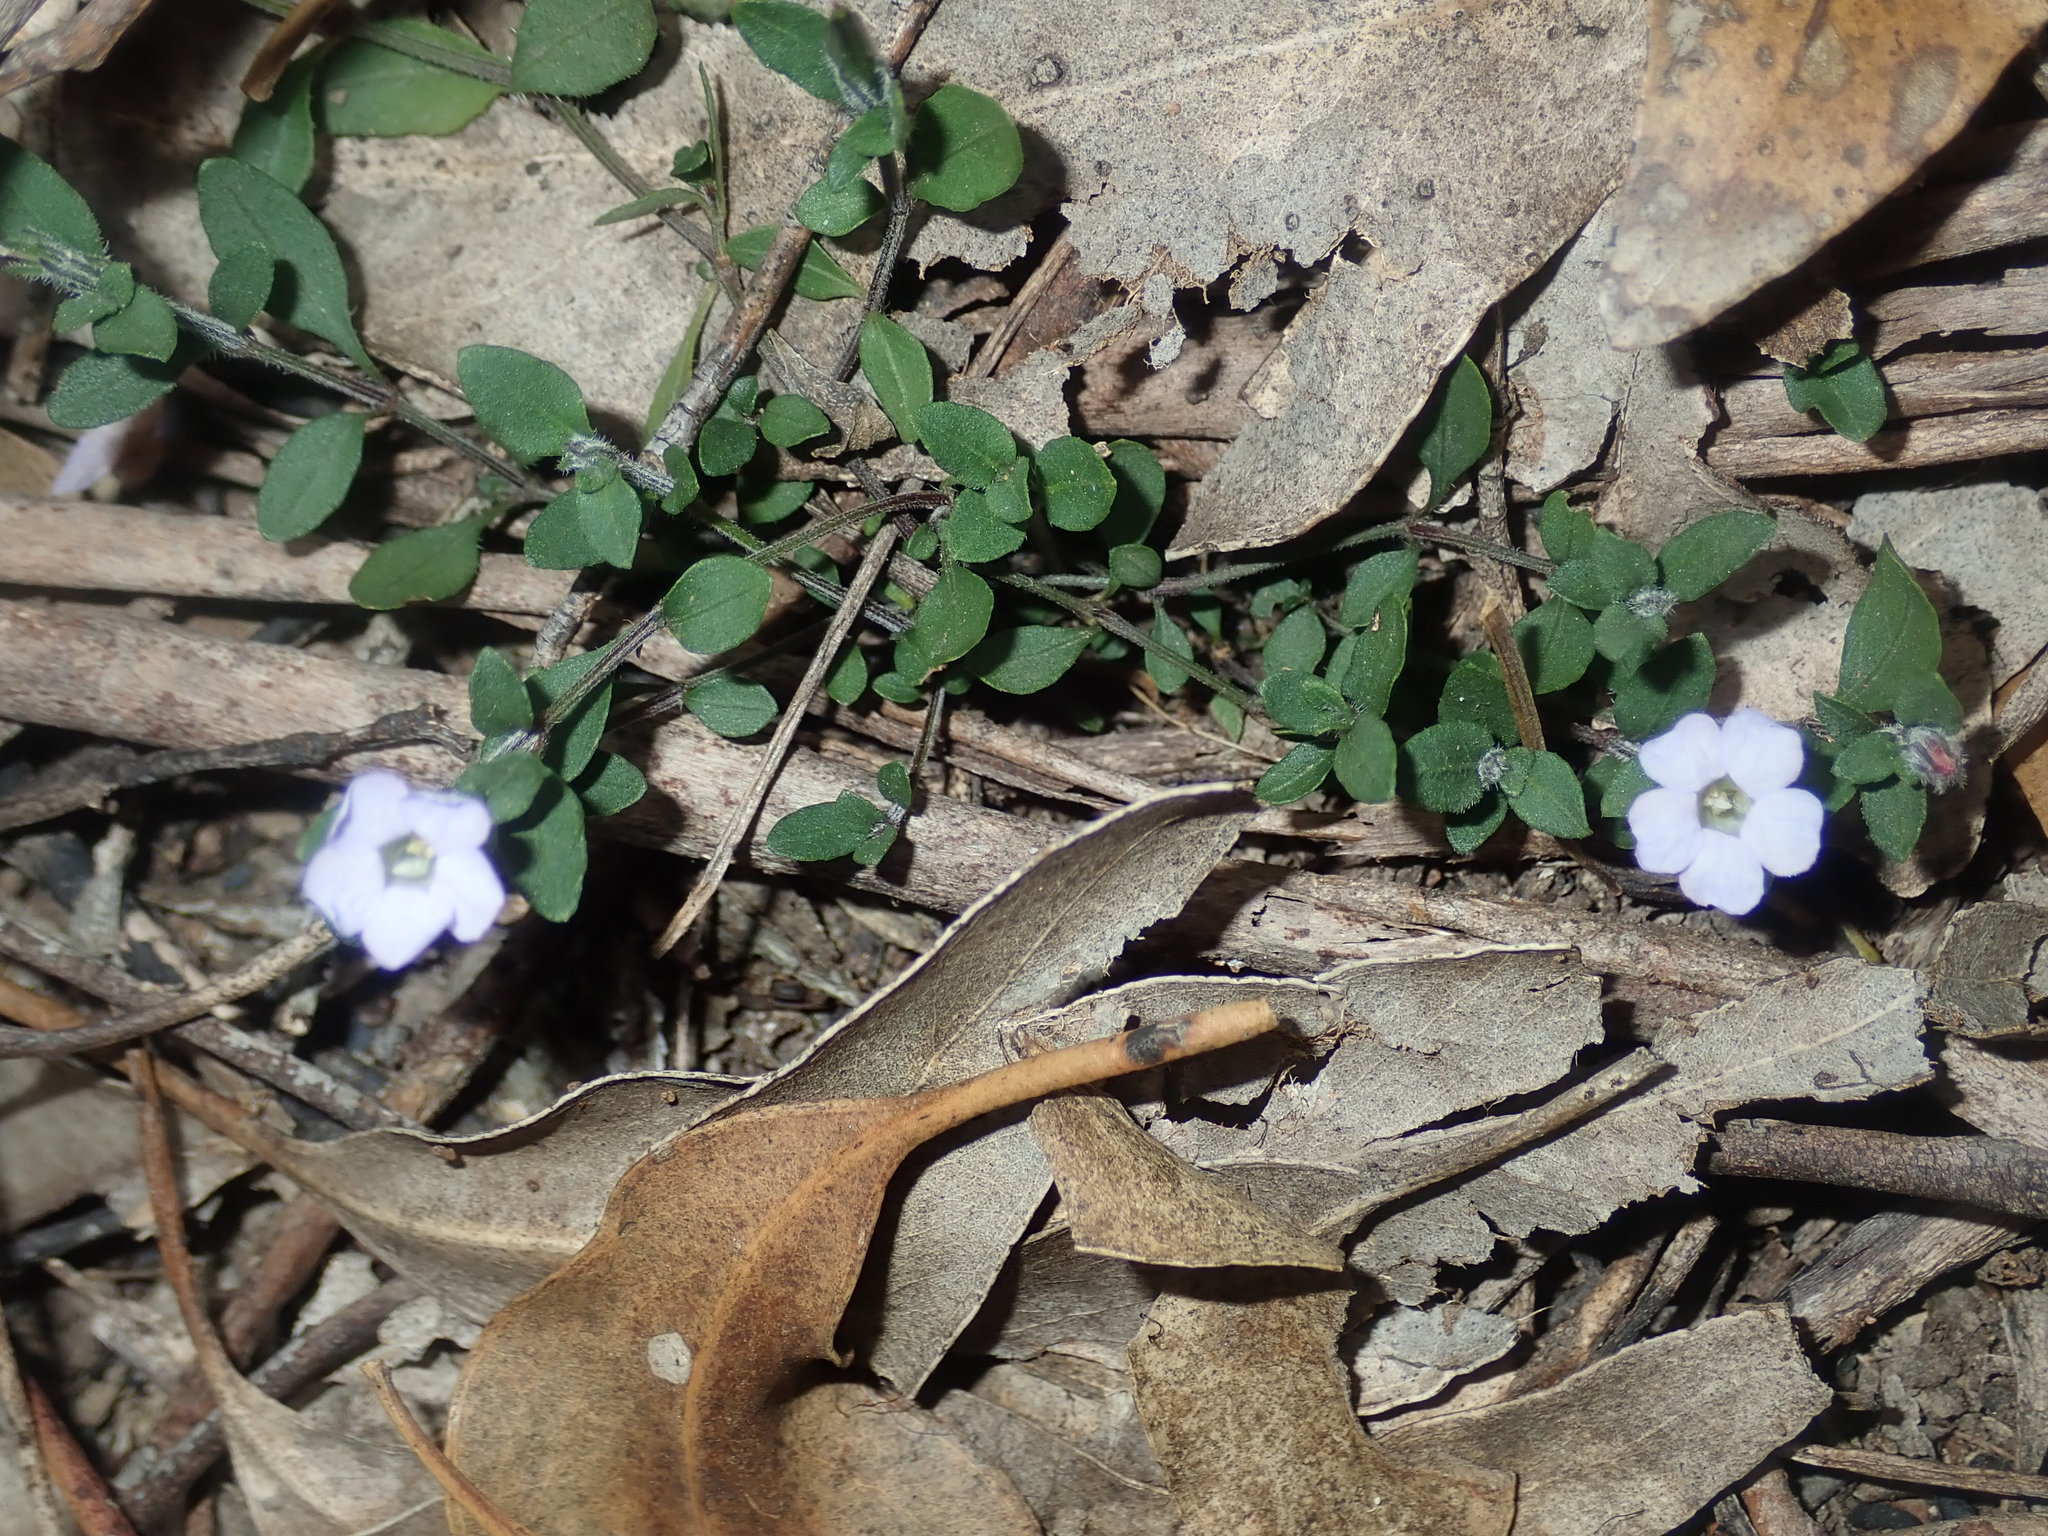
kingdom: Plantae
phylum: Tracheophyta
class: Magnoliopsida
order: Lamiales
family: Acanthaceae
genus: Brunoniella
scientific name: Brunoniella australis
